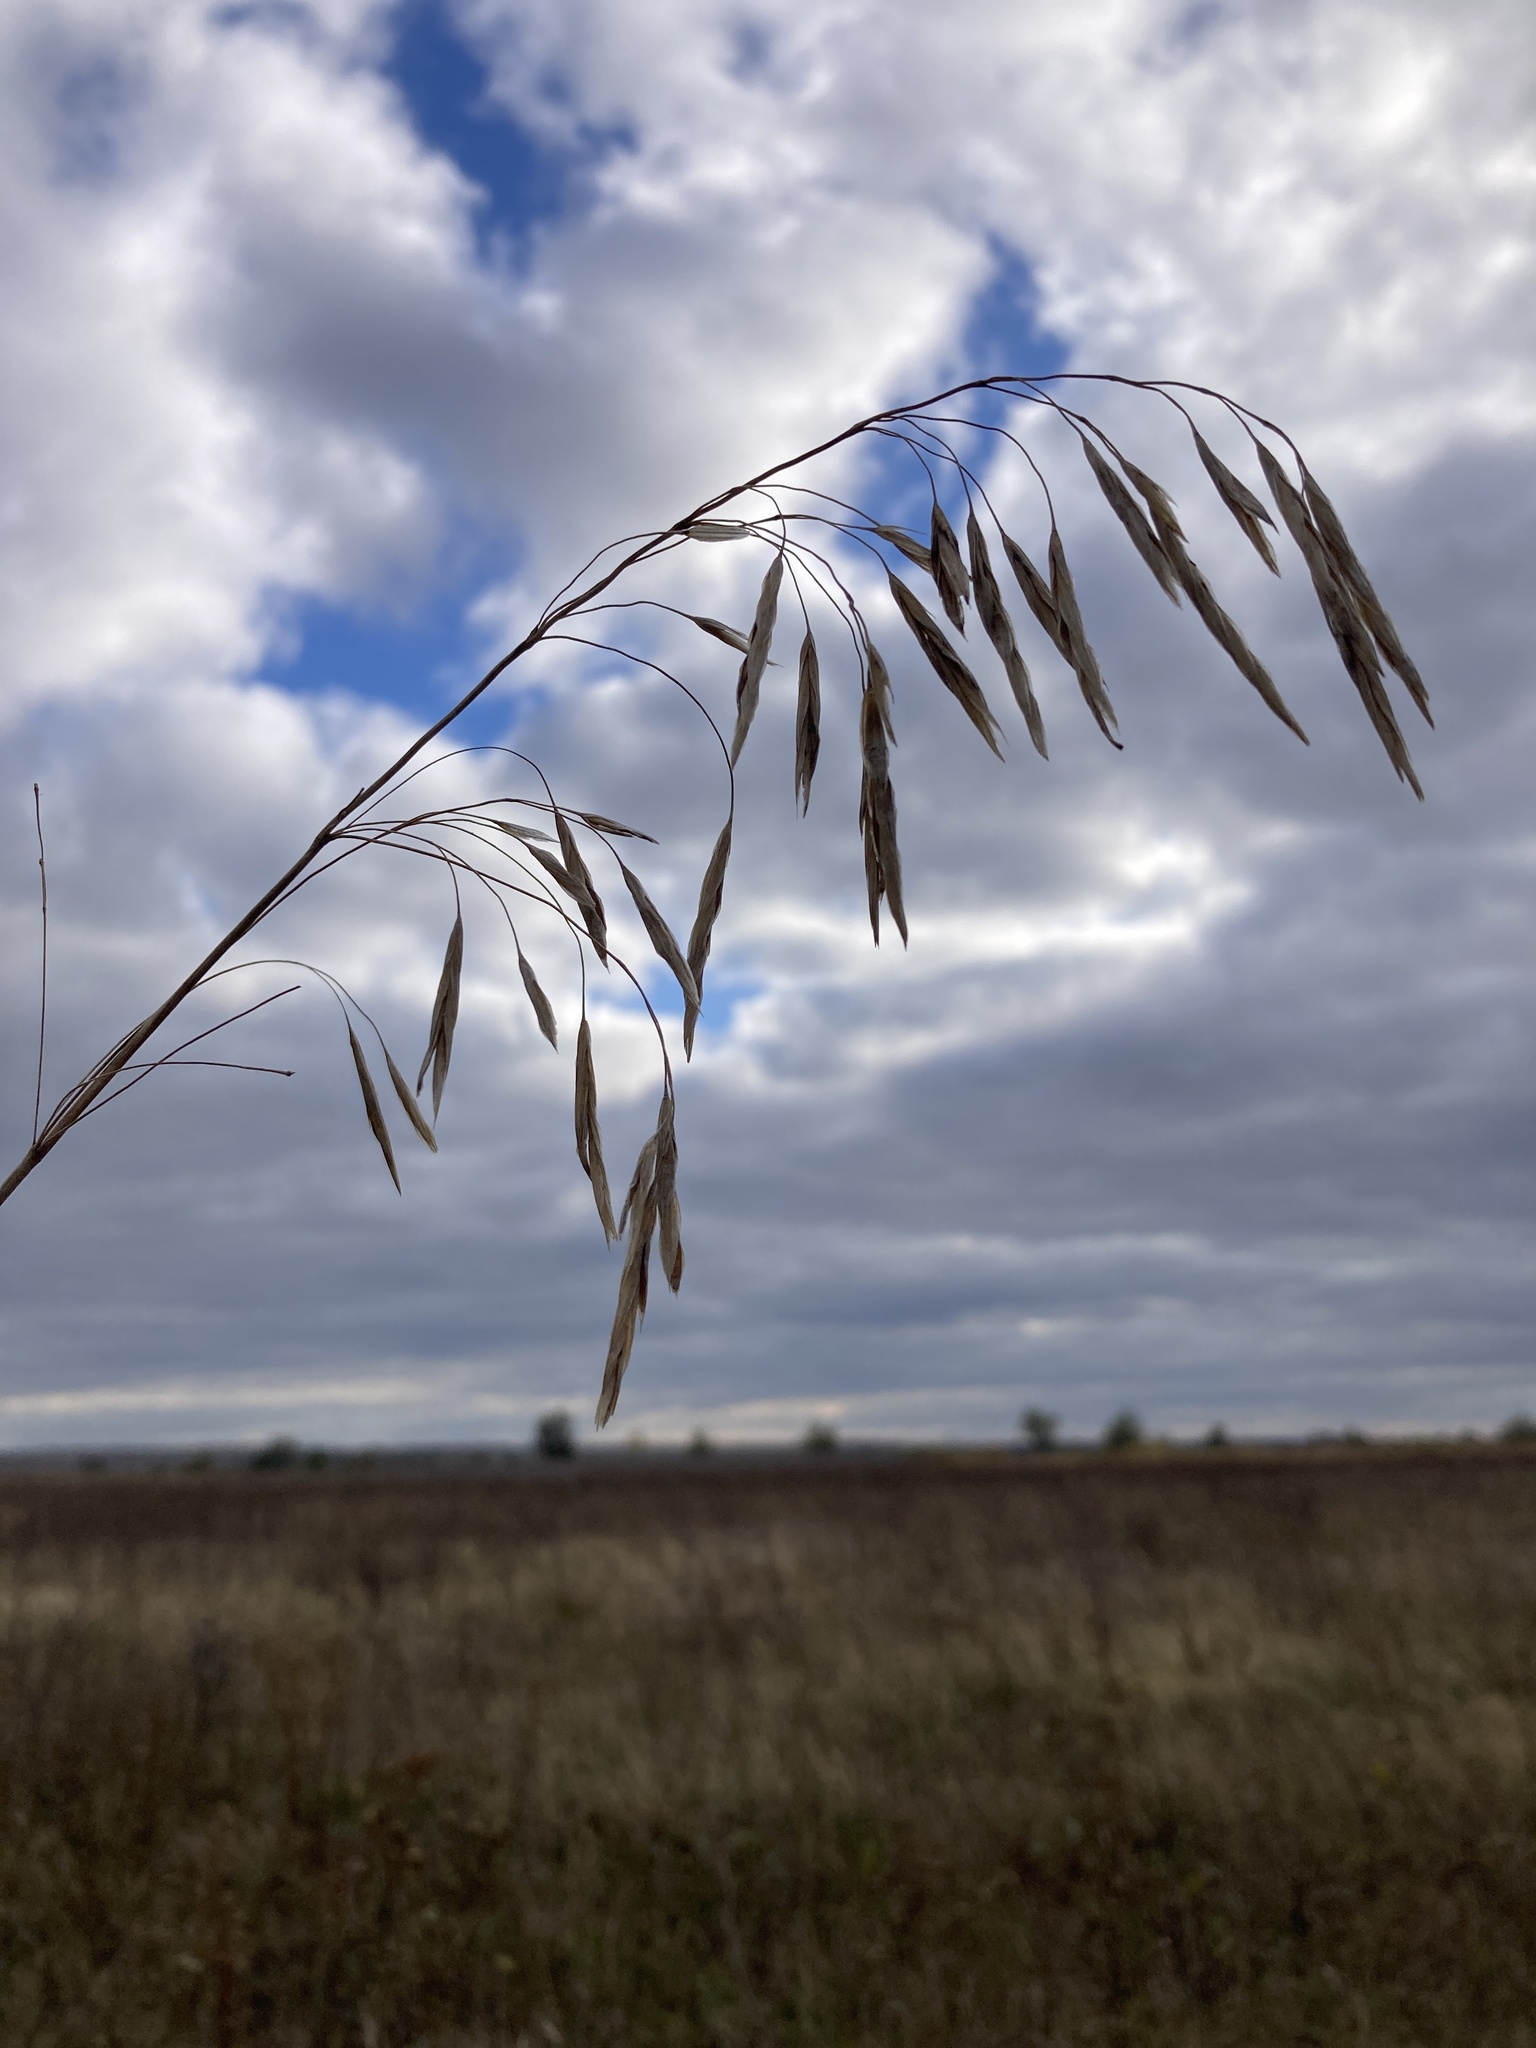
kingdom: Plantae
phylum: Tracheophyta
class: Liliopsida
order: Poales
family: Poaceae
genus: Bromus
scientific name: Bromus inermis
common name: Smooth brome
